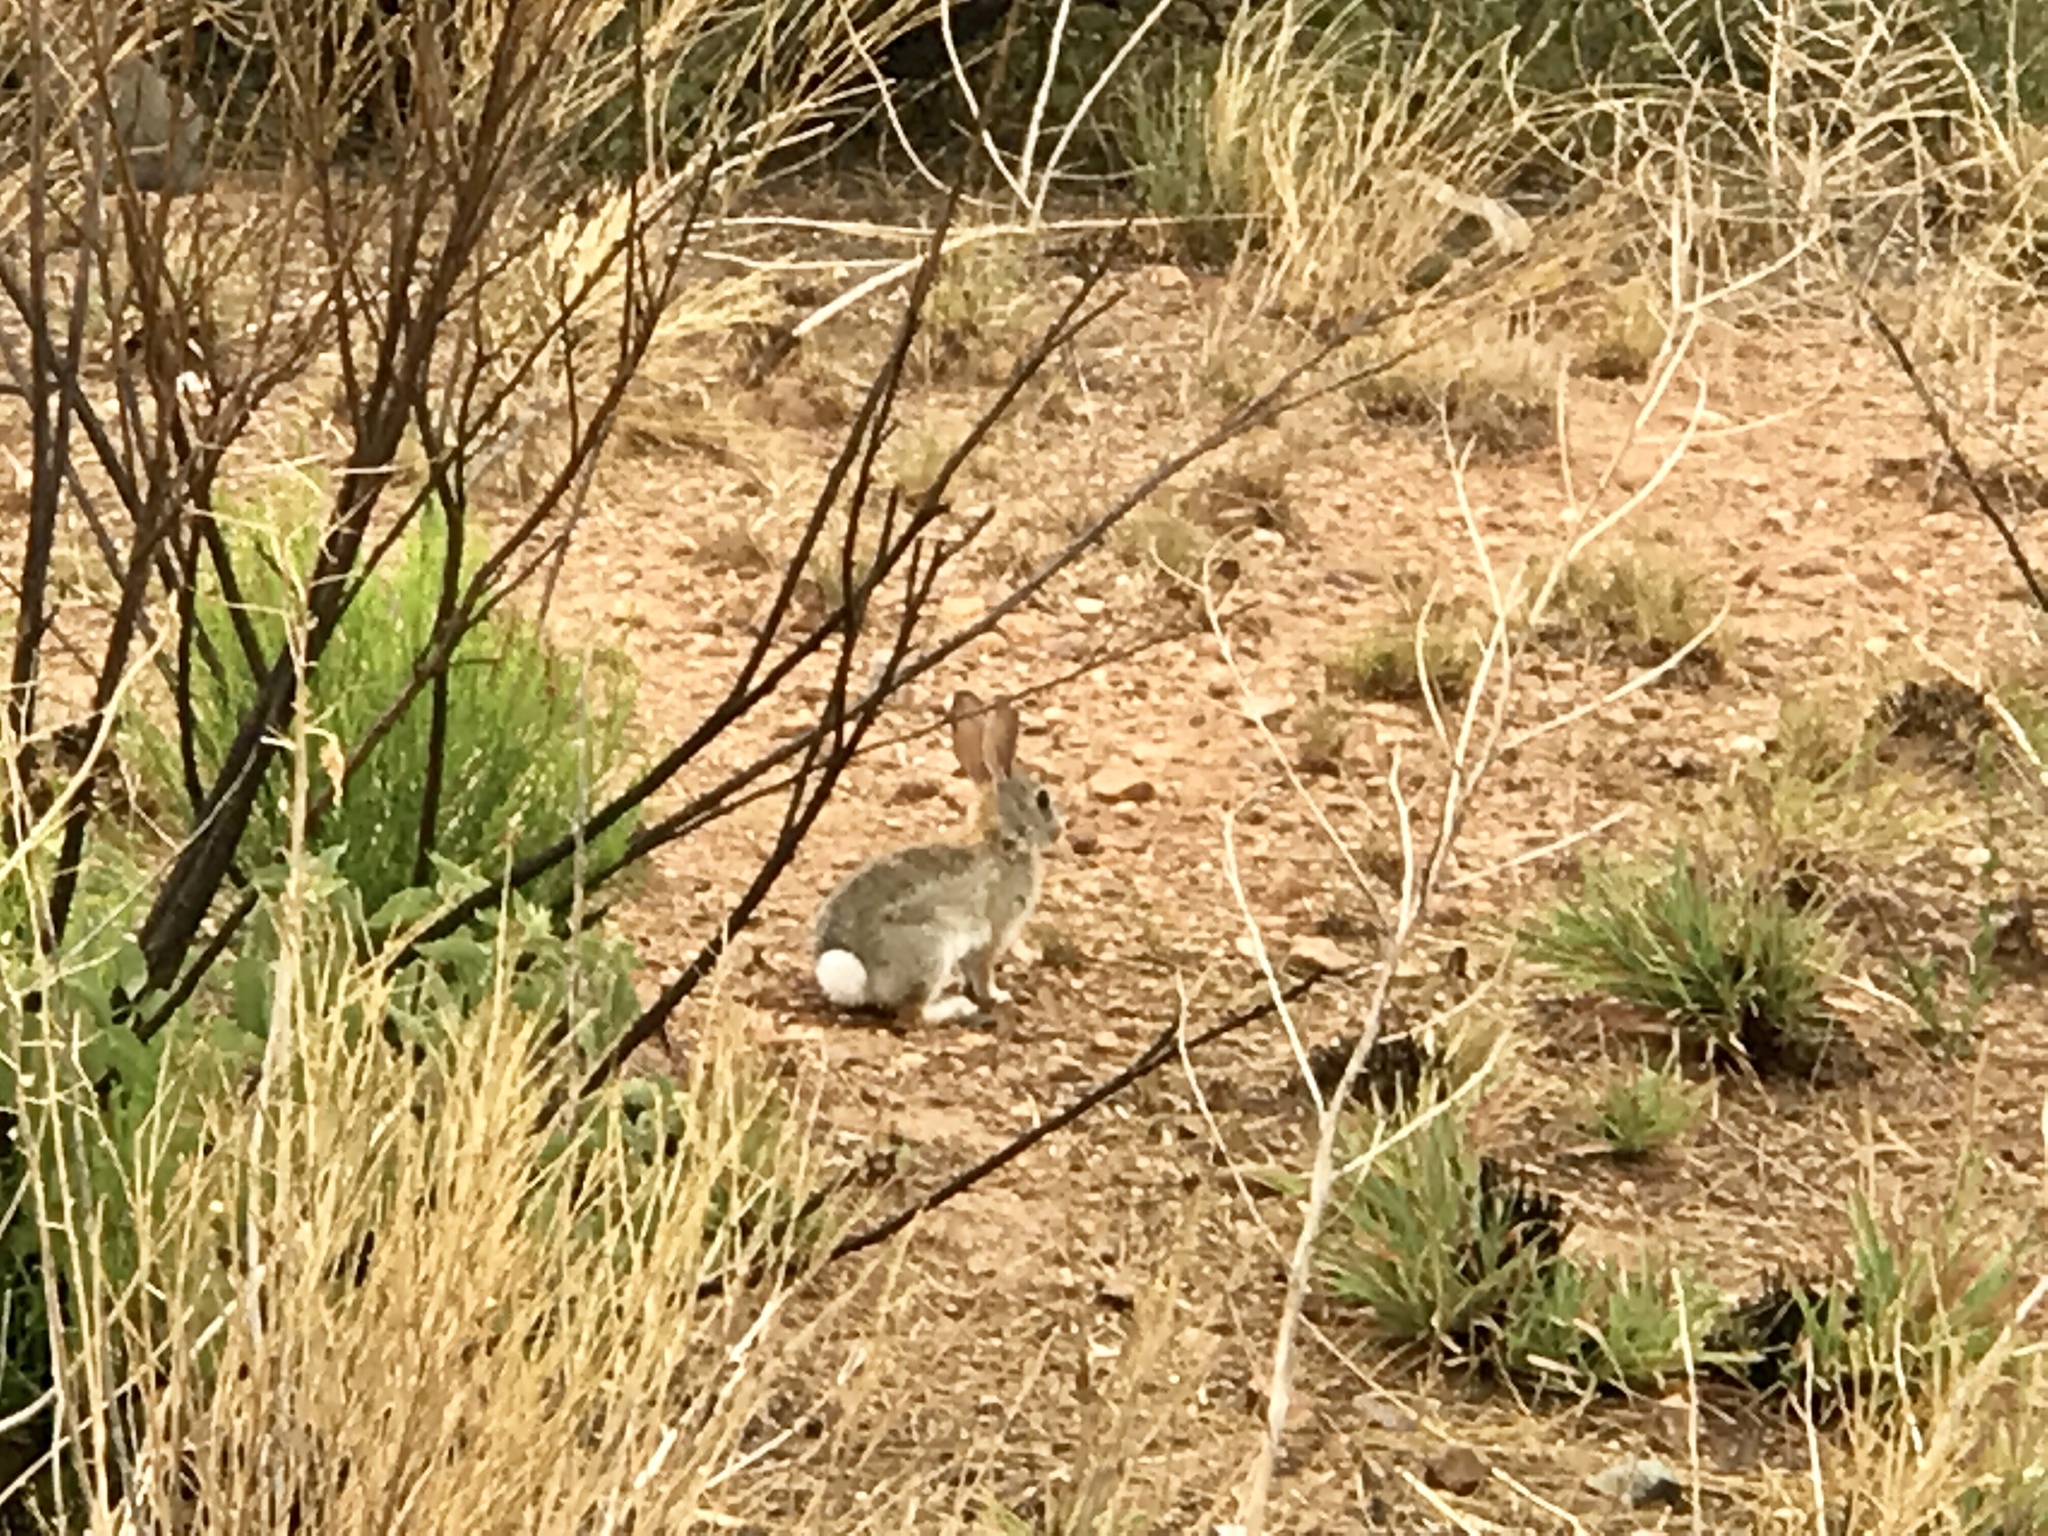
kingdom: Animalia
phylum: Chordata
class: Mammalia
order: Lagomorpha
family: Leporidae
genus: Sylvilagus
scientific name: Sylvilagus audubonii
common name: Desert cottontail
